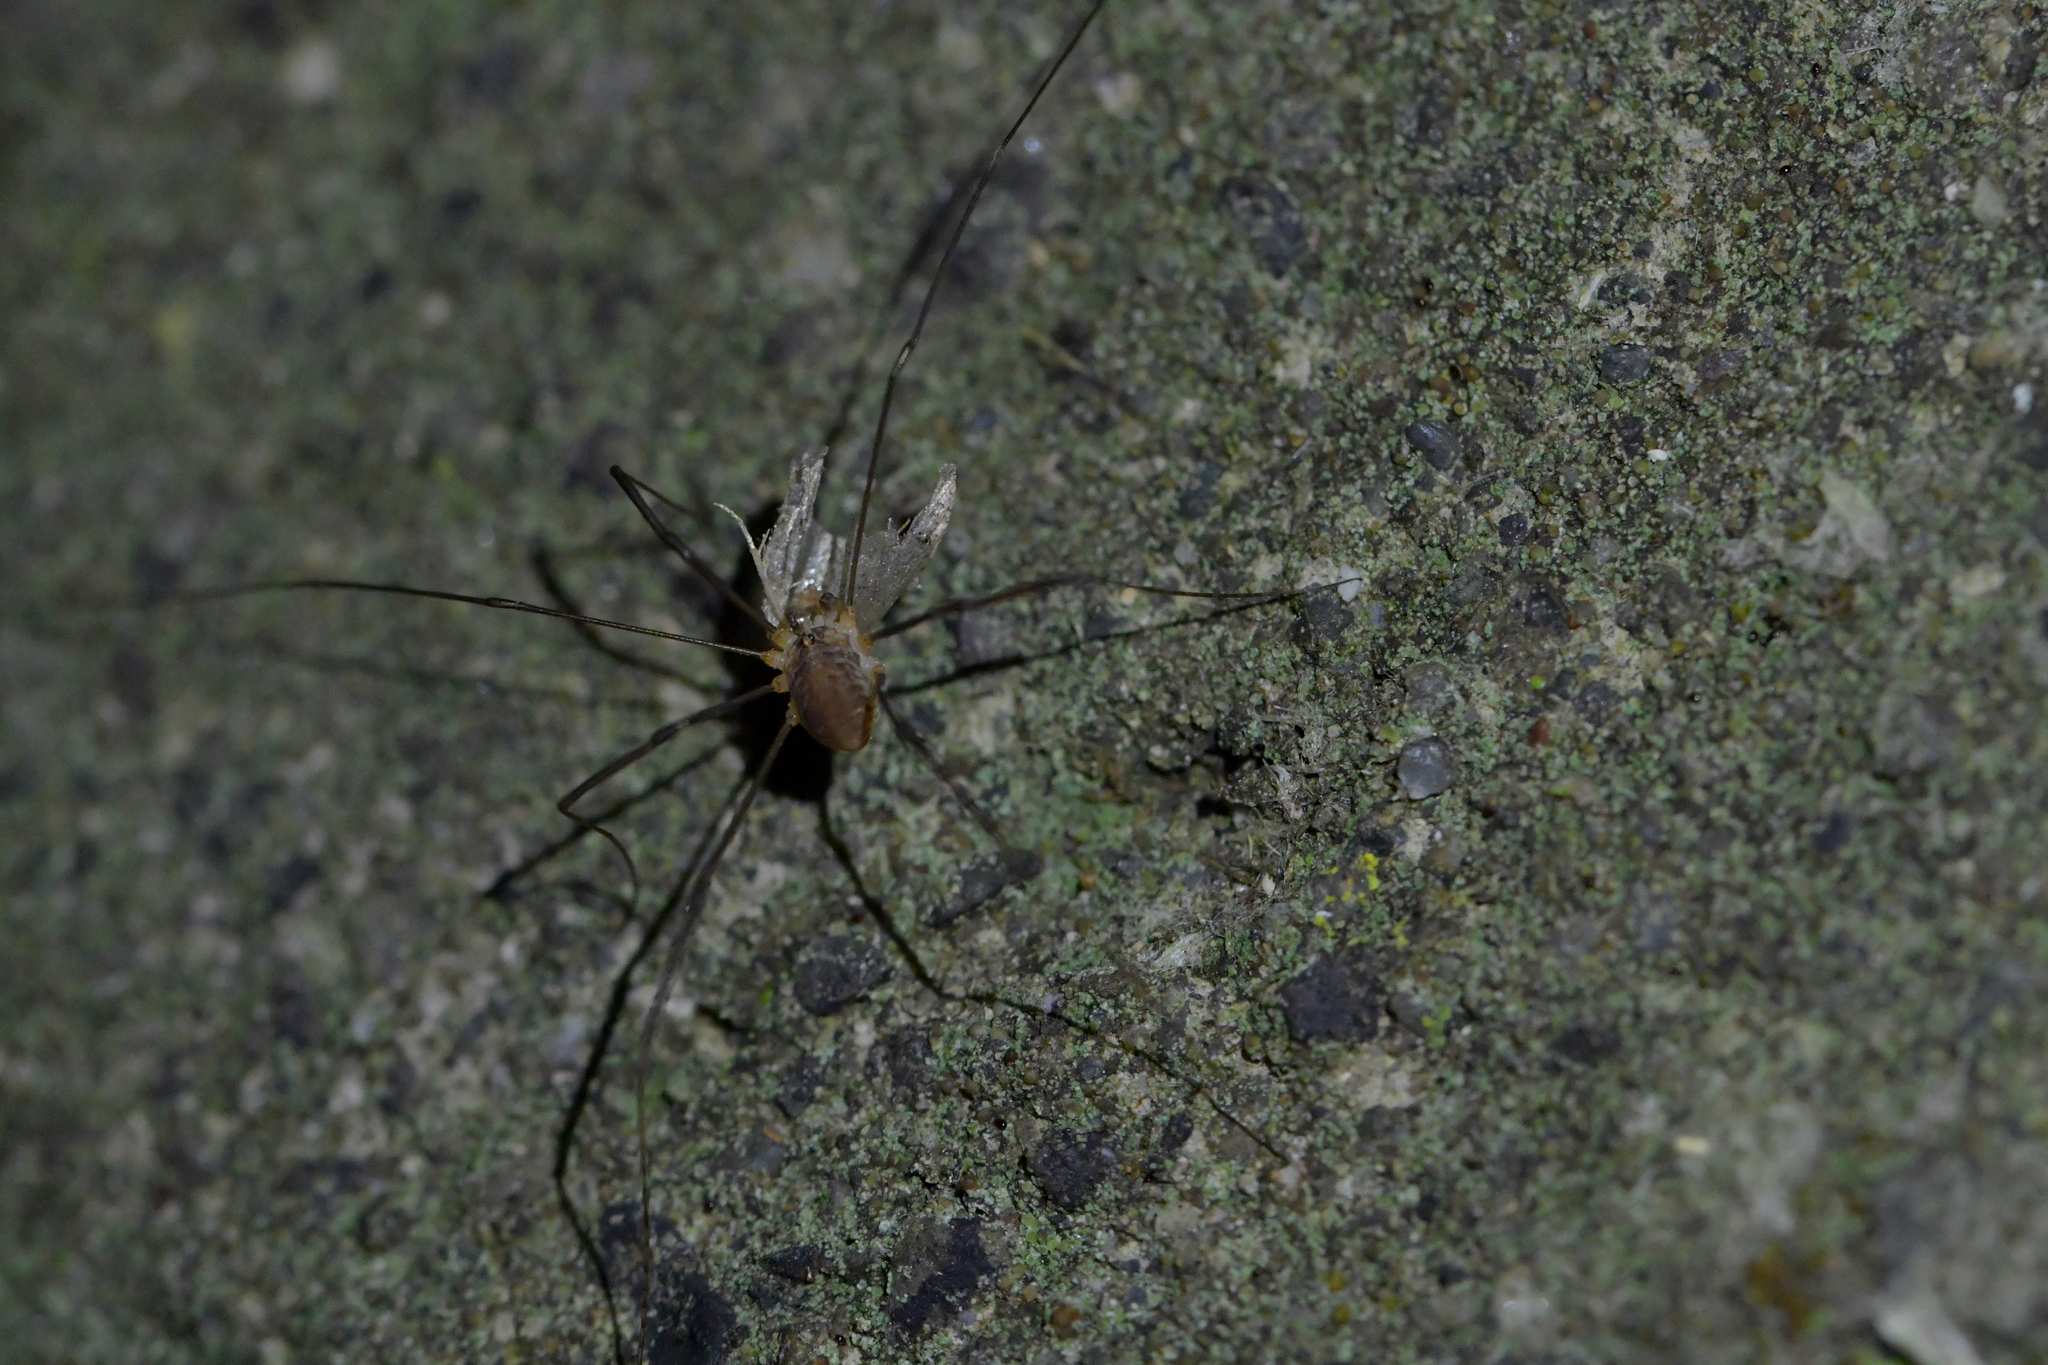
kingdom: Animalia
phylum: Arthropoda
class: Arachnida
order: Opiliones
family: Phalangiidae
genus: Phalangium
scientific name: Phalangium opilio
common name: Daddy longleg
